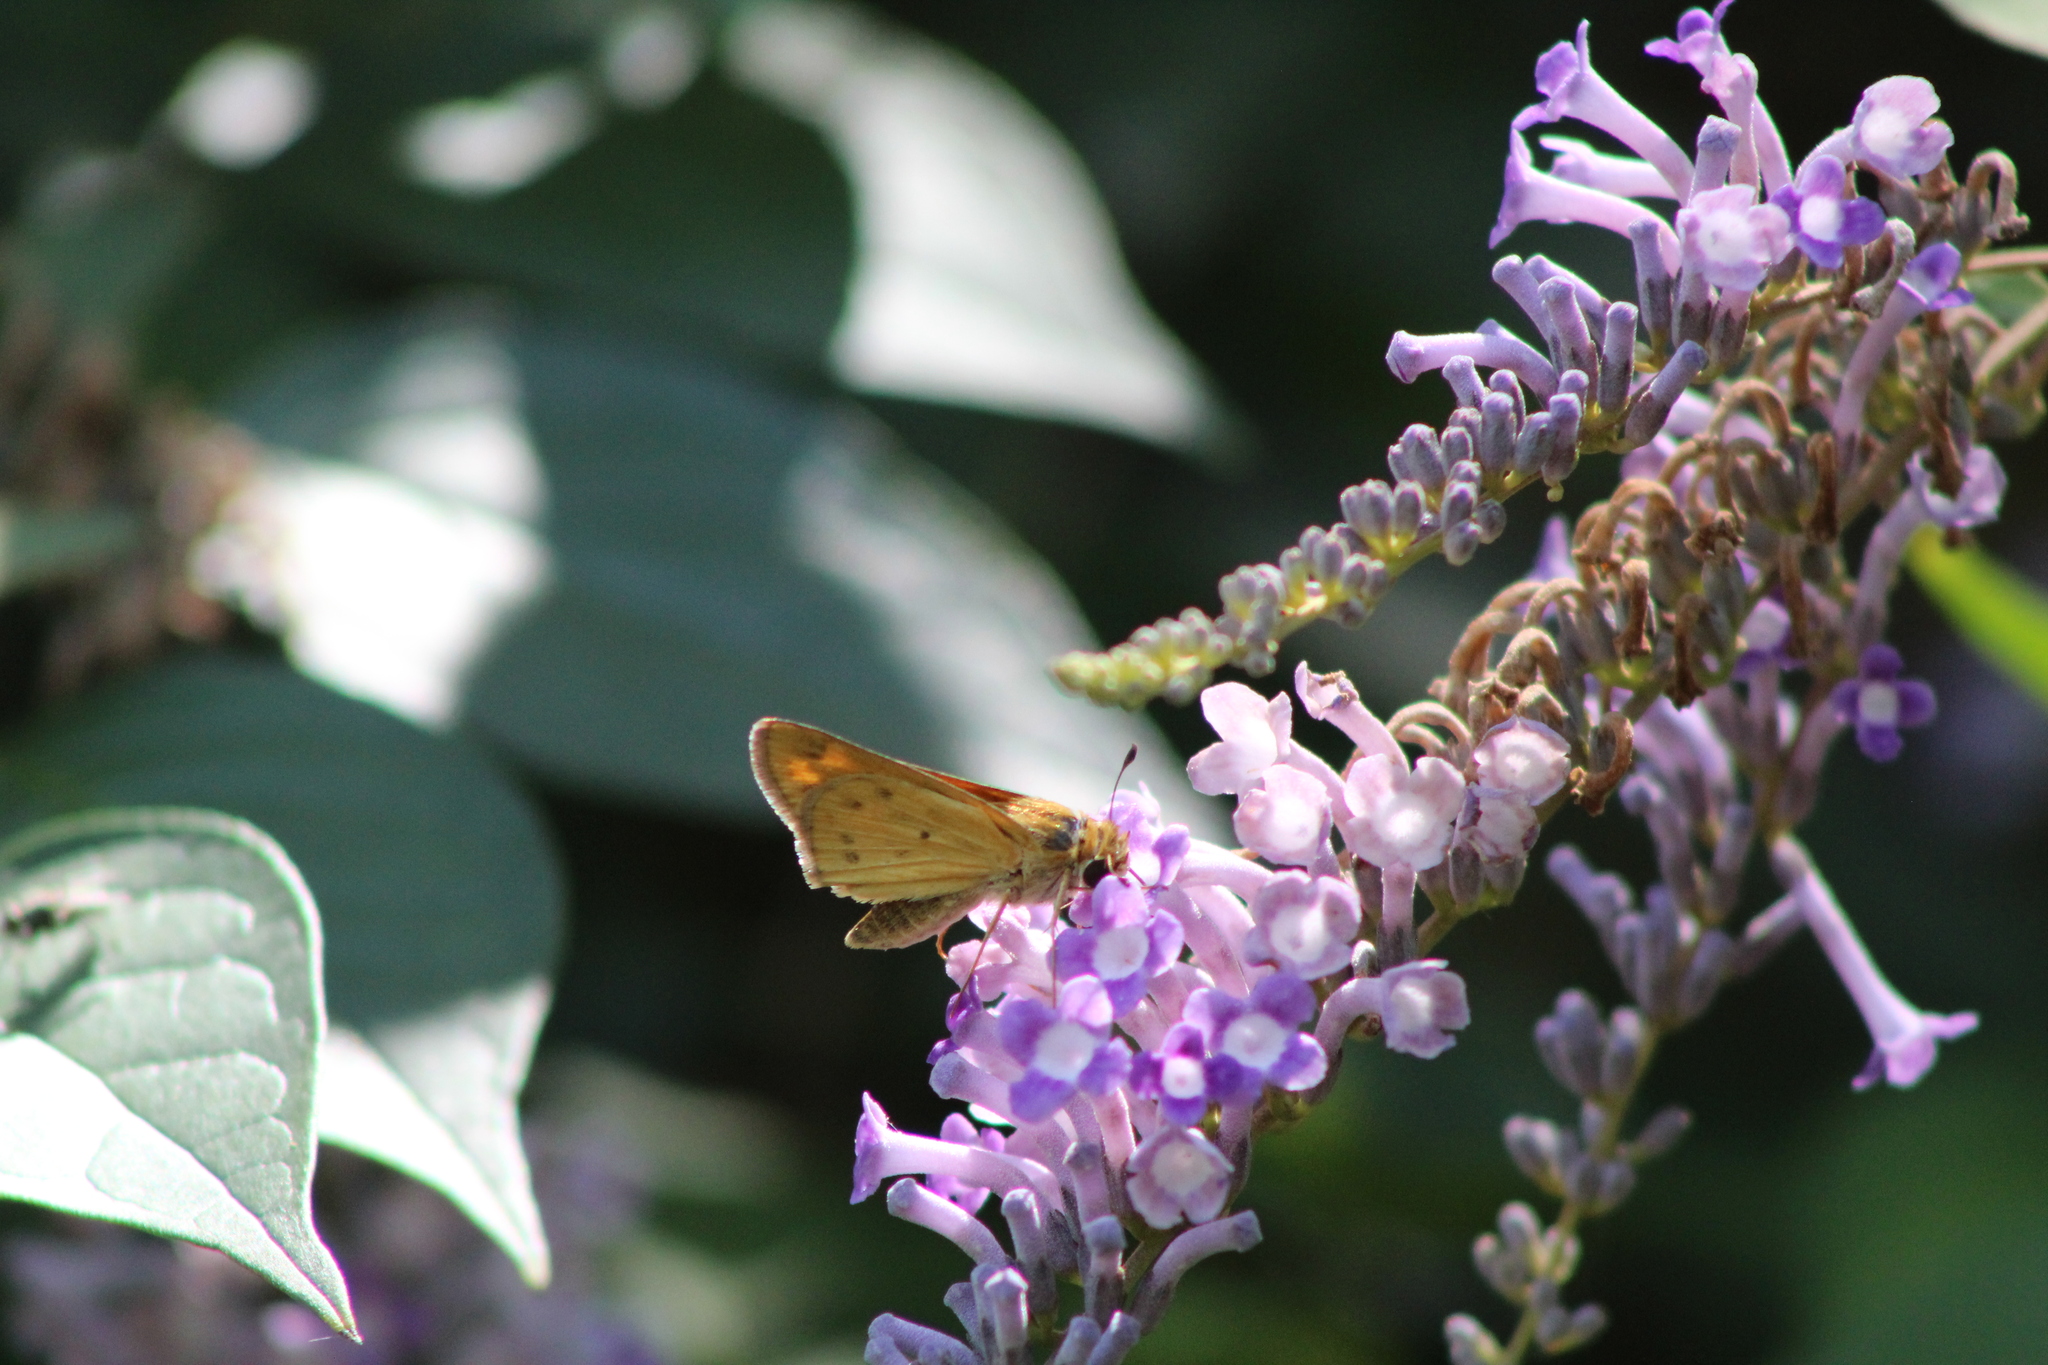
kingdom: Animalia
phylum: Arthropoda
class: Insecta
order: Lepidoptera
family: Hesperiidae
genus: Hylephila
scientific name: Hylephila phyleus
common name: Fiery skipper
